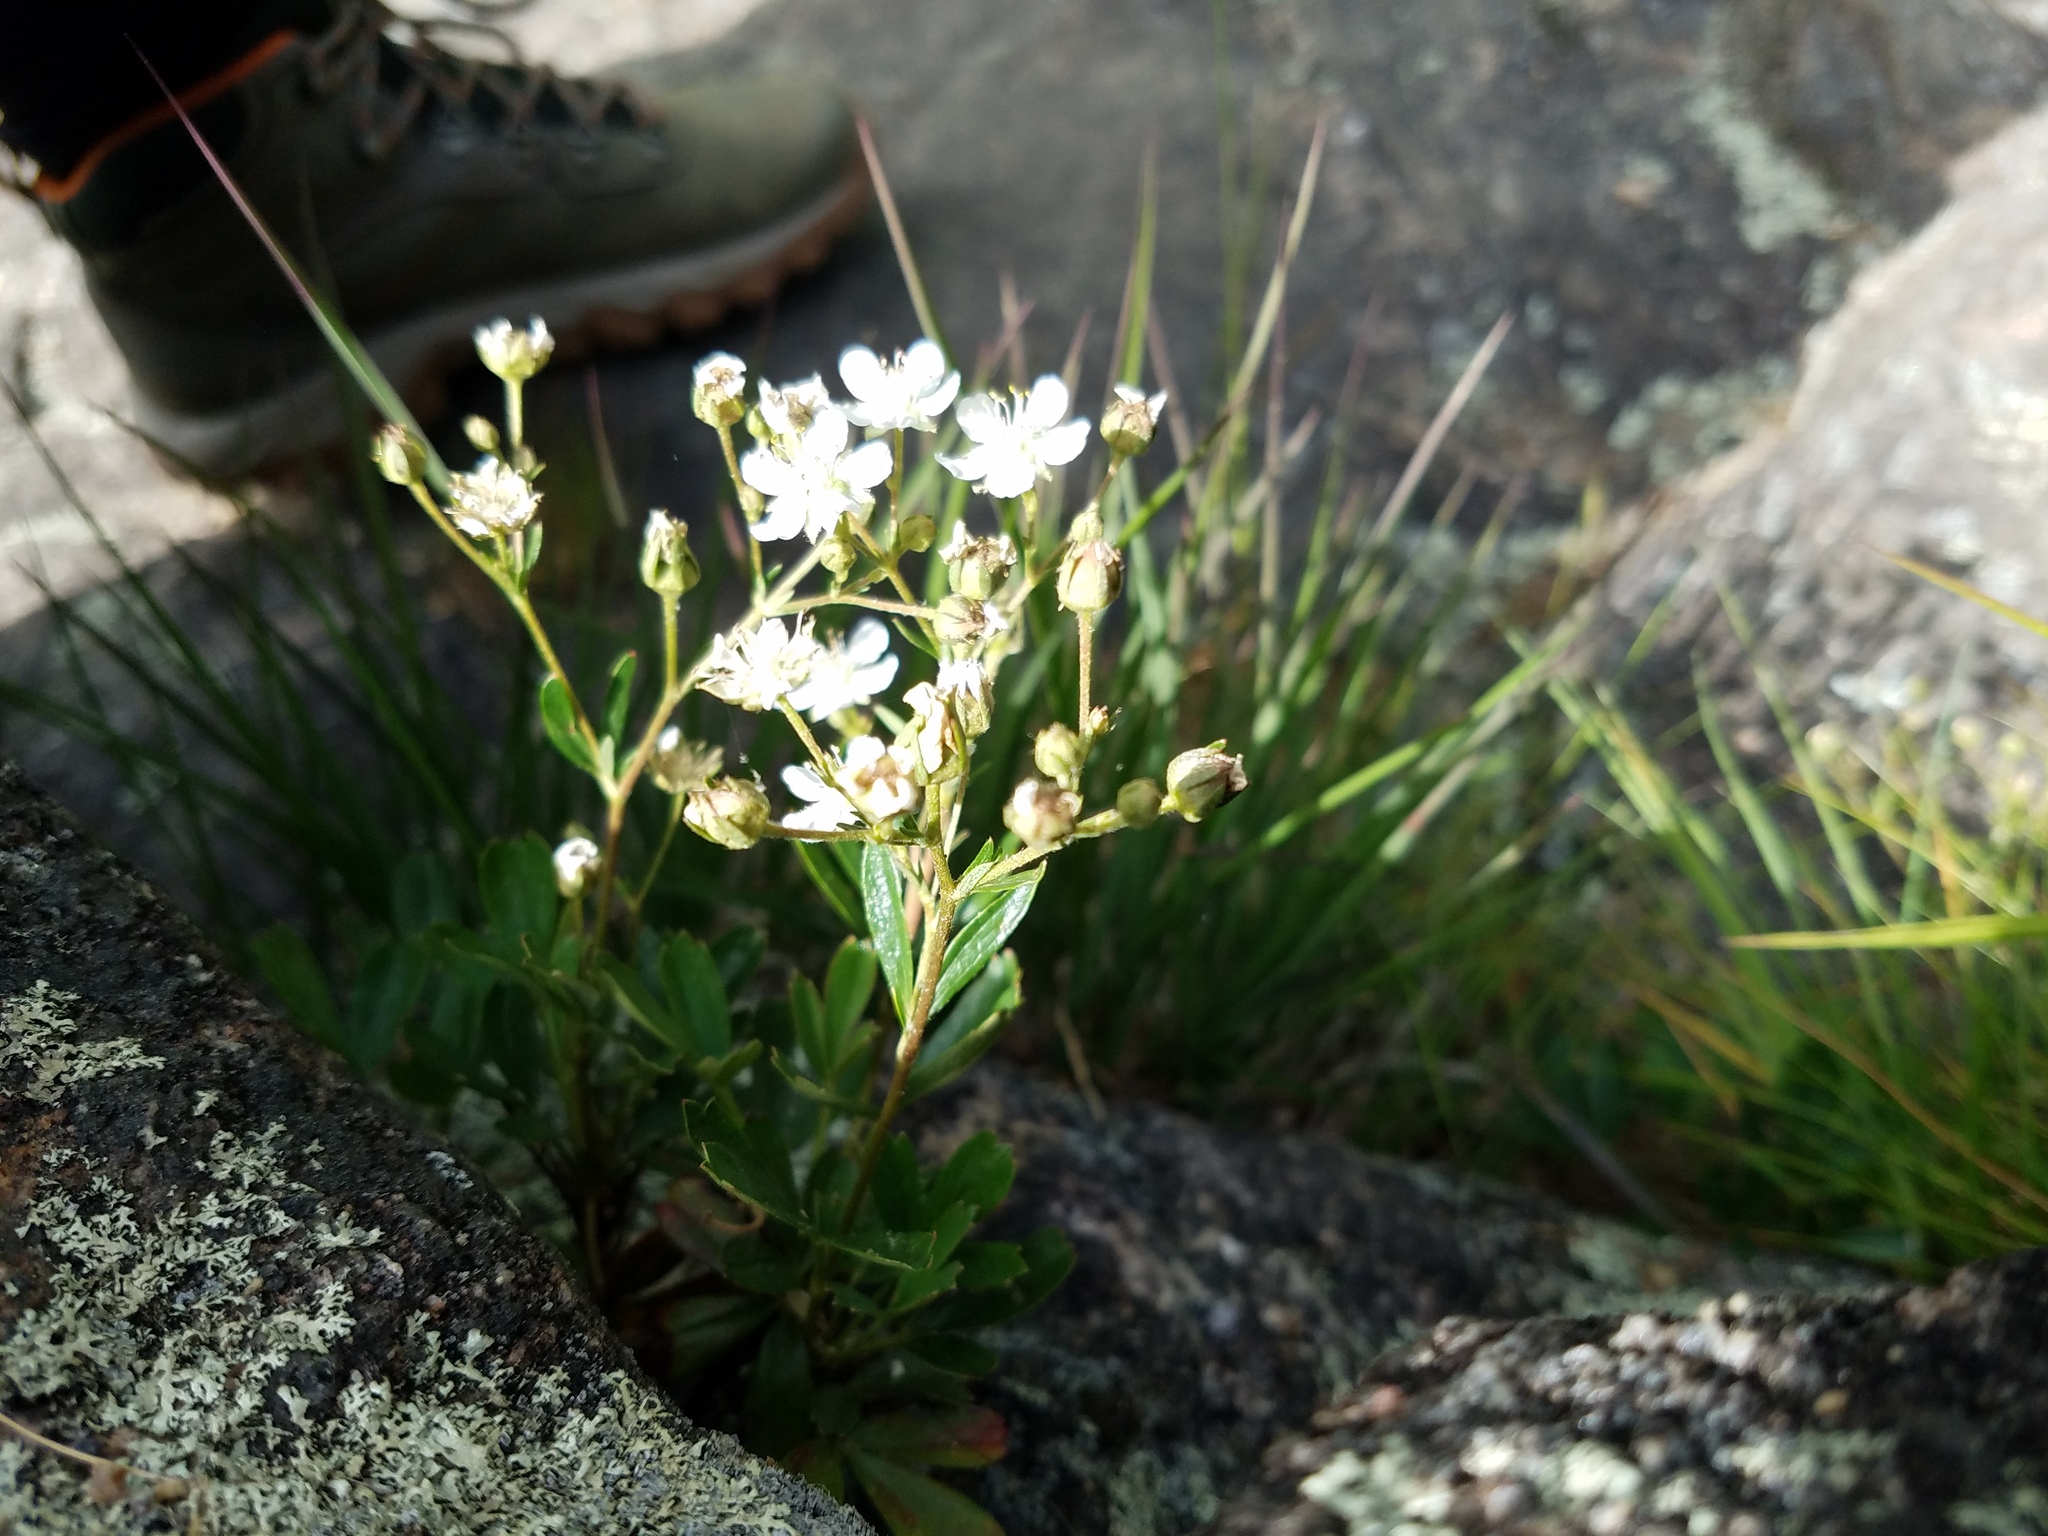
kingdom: Plantae
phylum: Tracheophyta
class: Magnoliopsida
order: Rosales
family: Rosaceae
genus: Sibbaldia
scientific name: Sibbaldia tridentata
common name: Three-toothed cinquefoil
